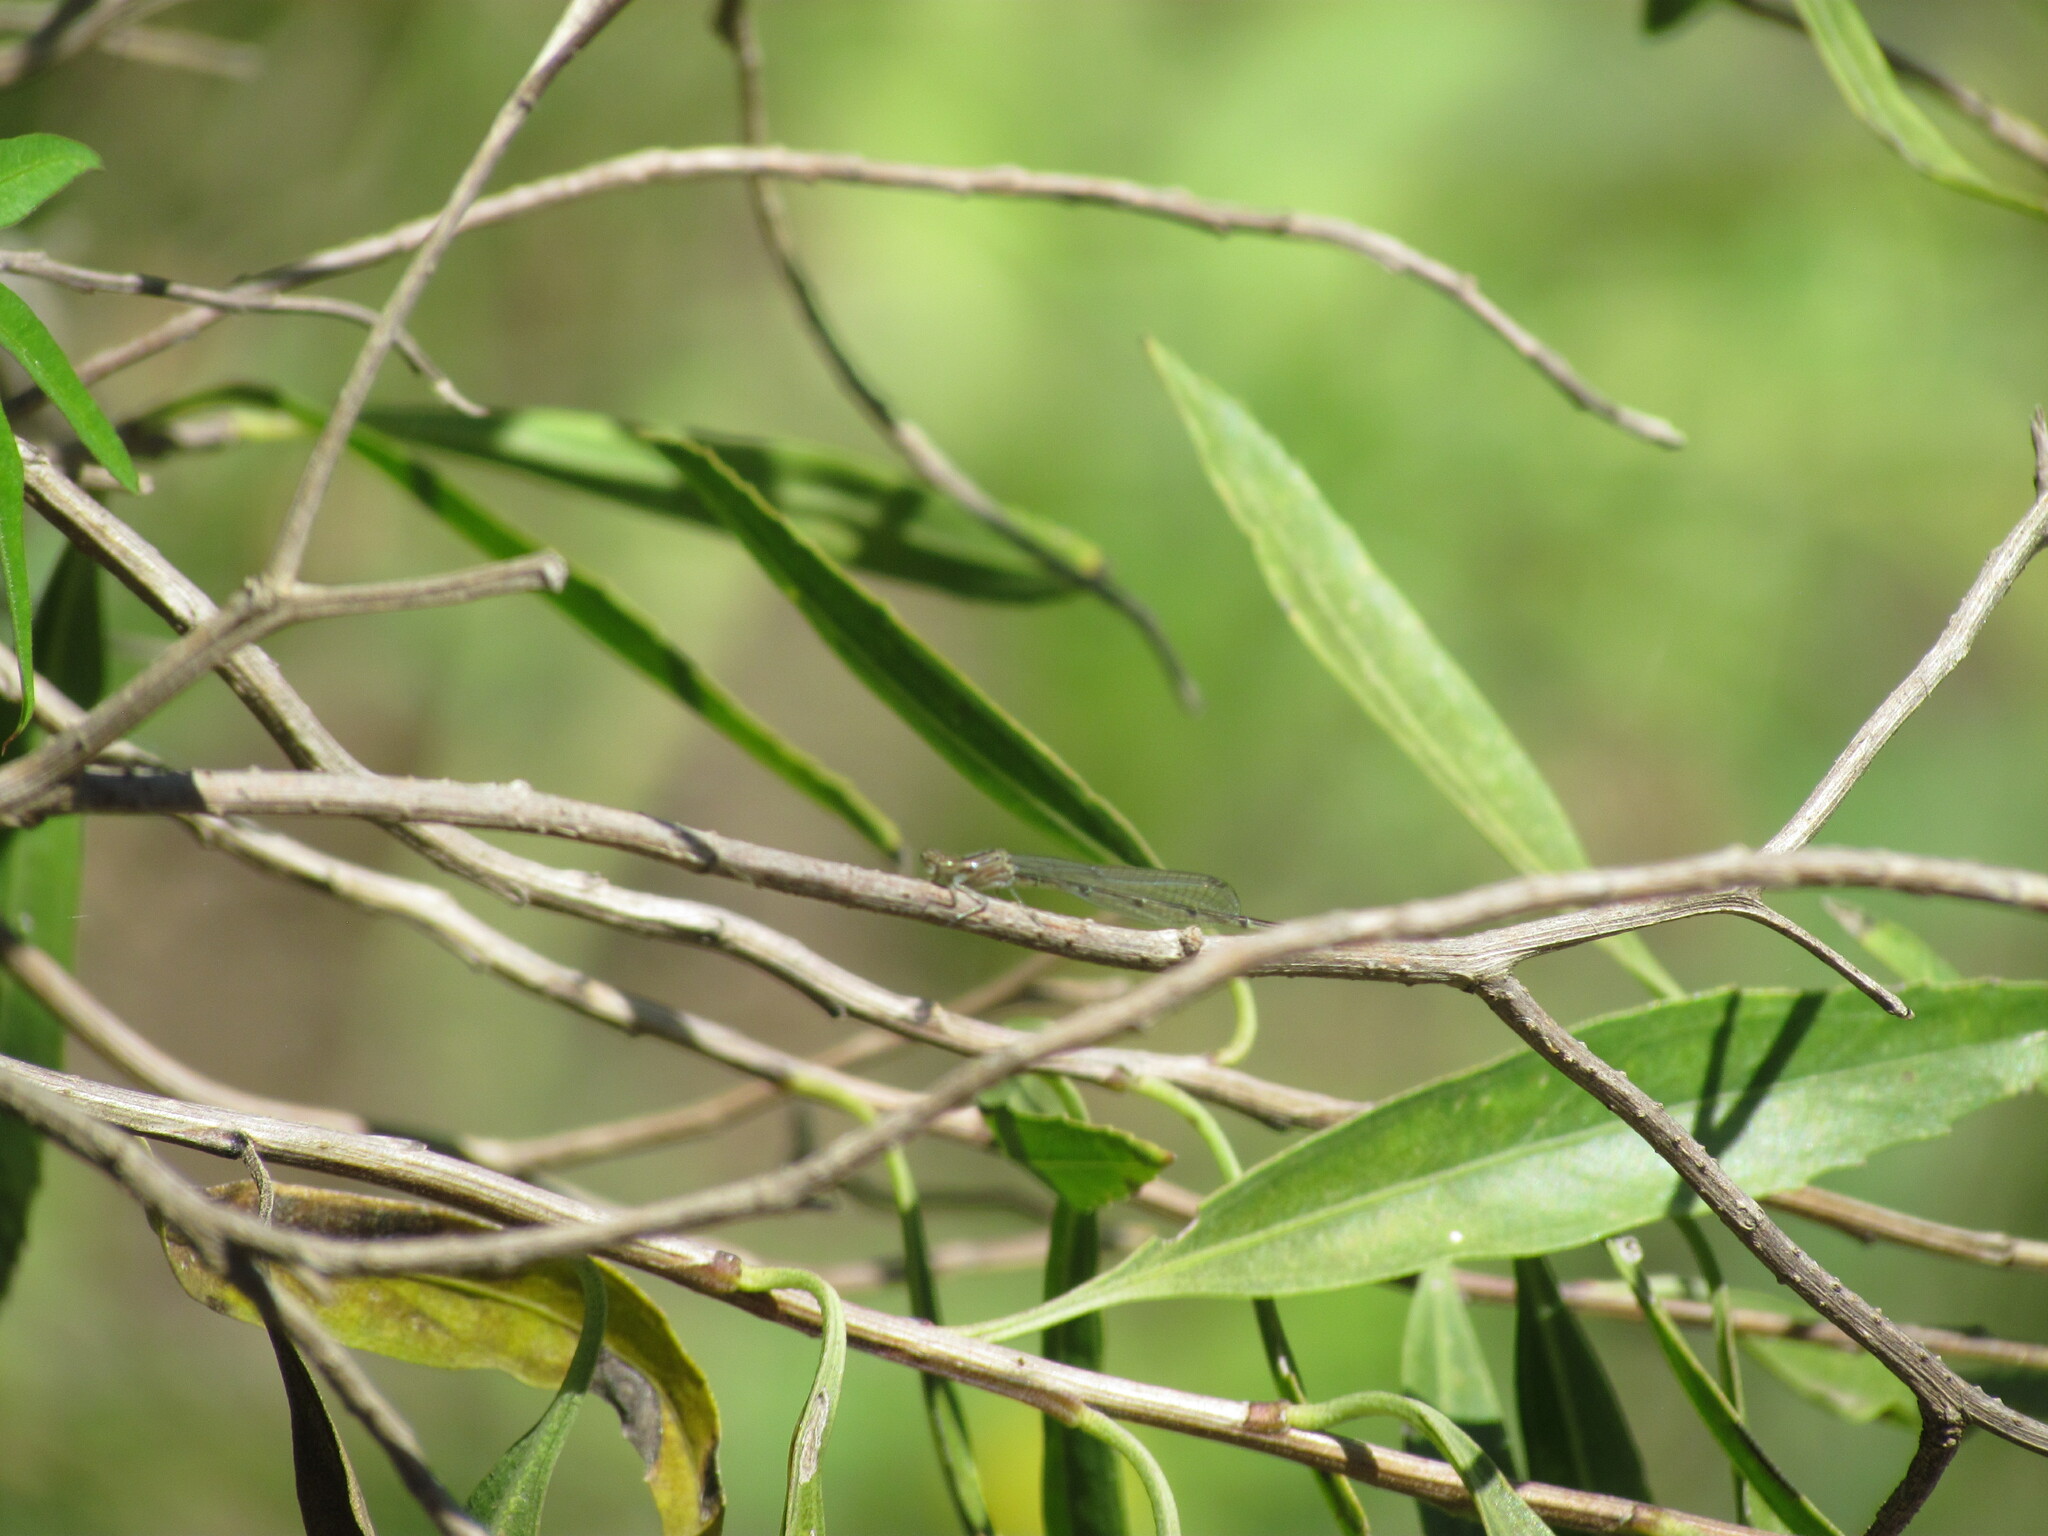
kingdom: Animalia
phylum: Arthropoda
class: Insecta
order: Odonata
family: Coenagrionidae
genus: Oxyagrion
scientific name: Oxyagrion terminale
